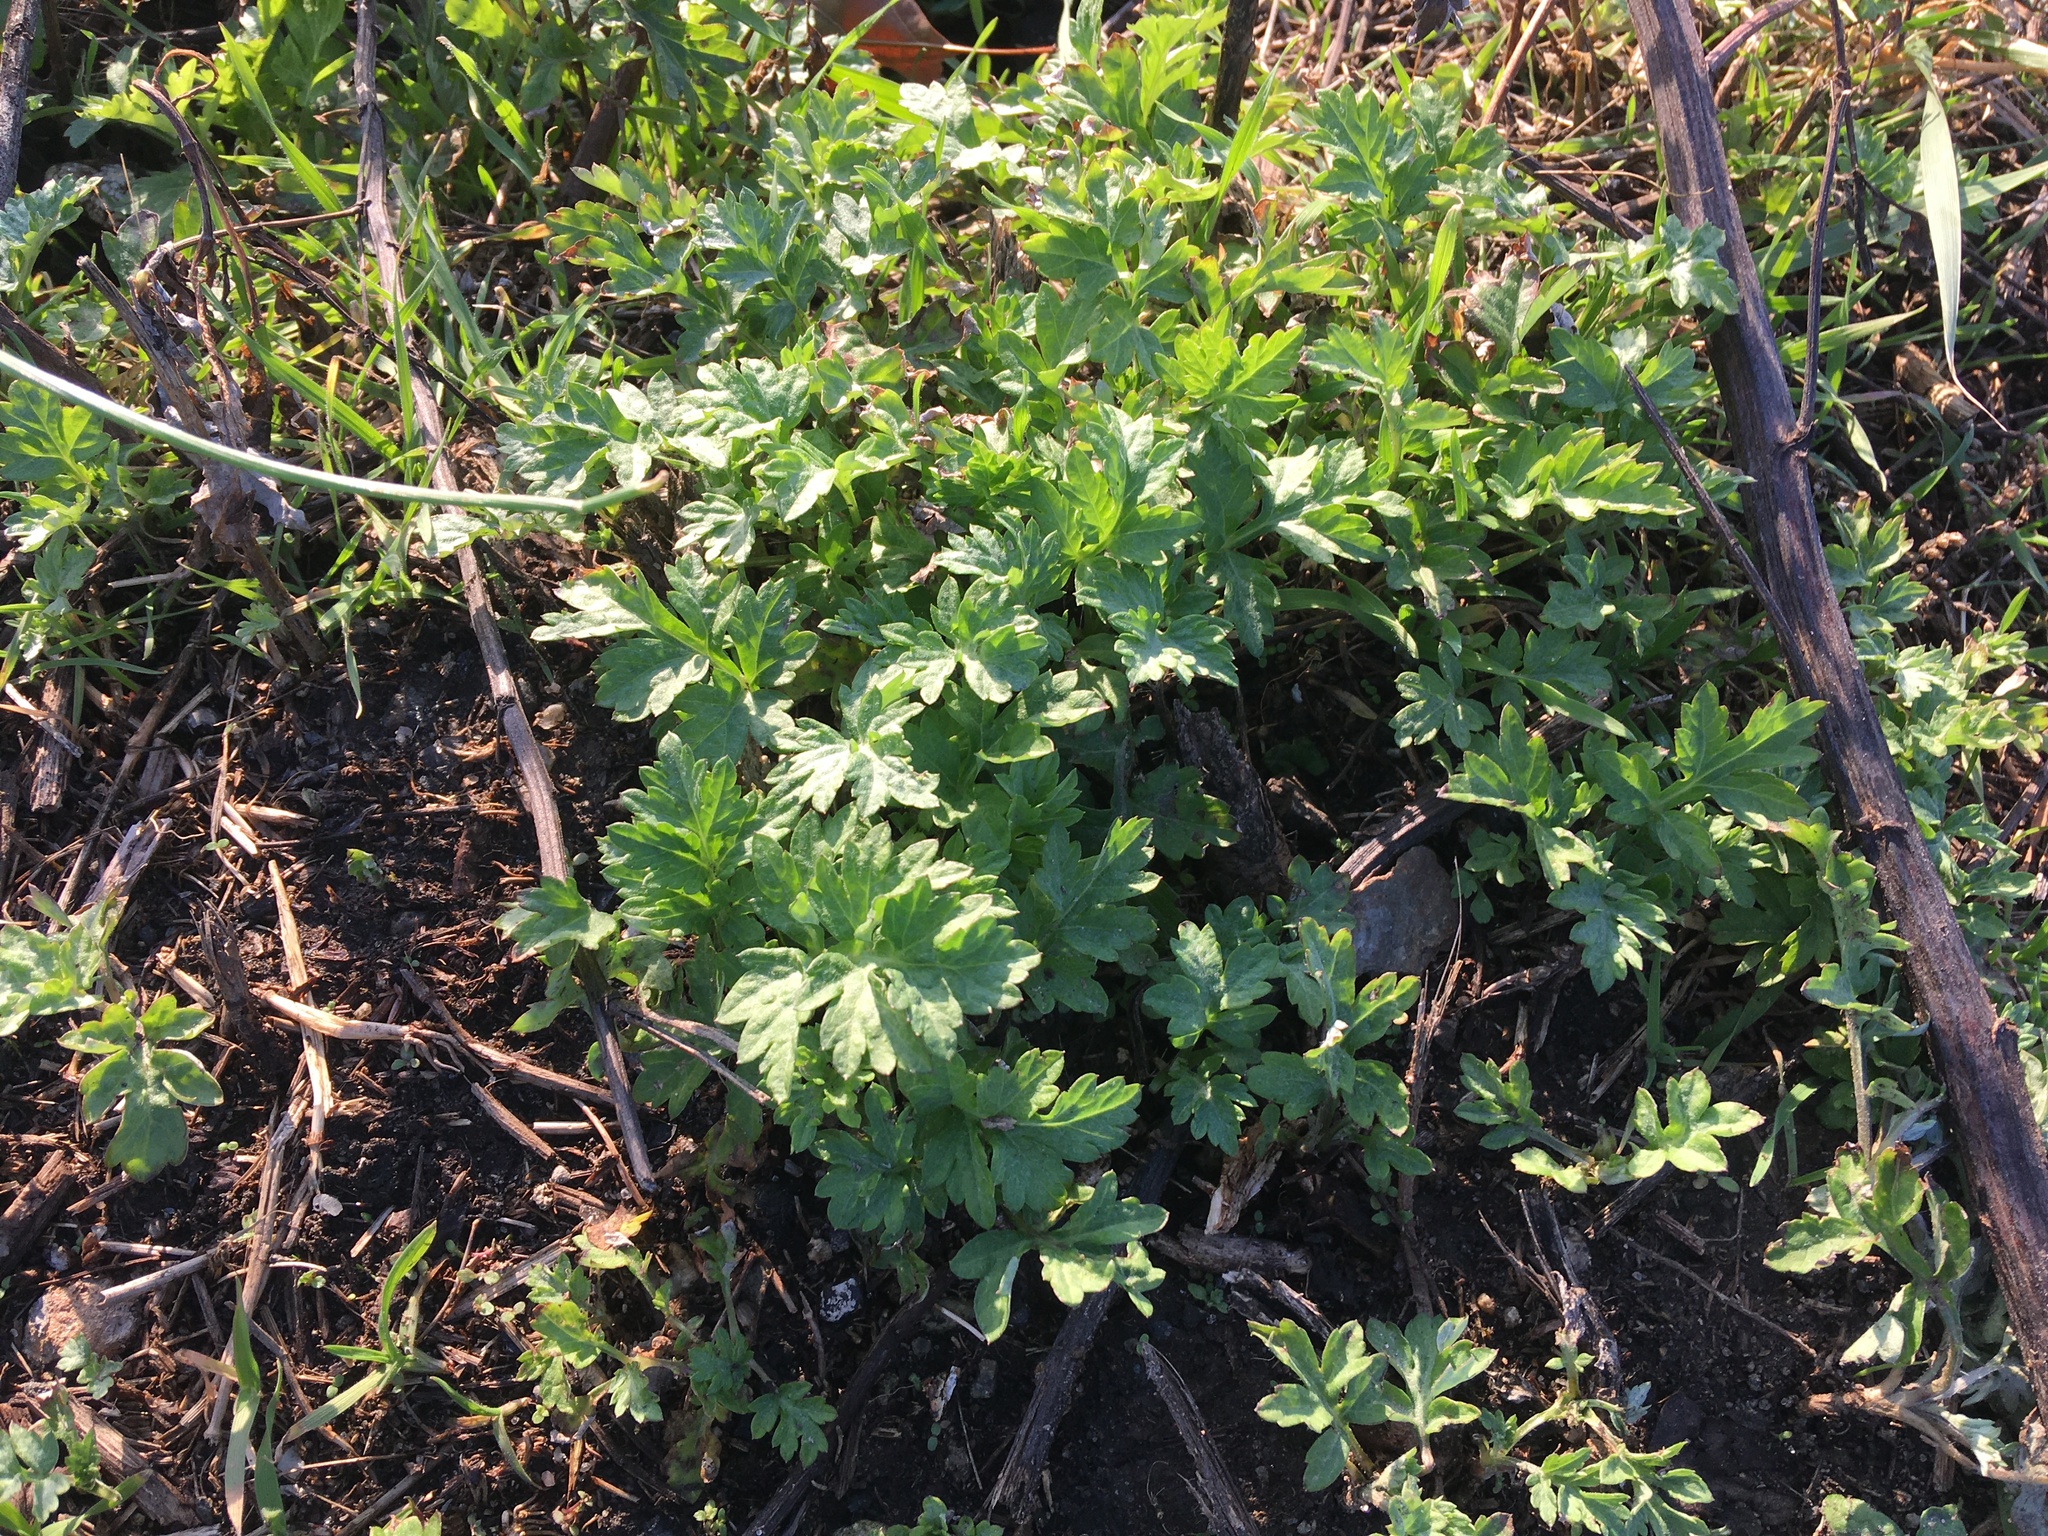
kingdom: Plantae
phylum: Tracheophyta
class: Magnoliopsida
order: Asterales
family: Asteraceae
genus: Artemisia
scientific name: Artemisia vulgaris
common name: Mugwort
